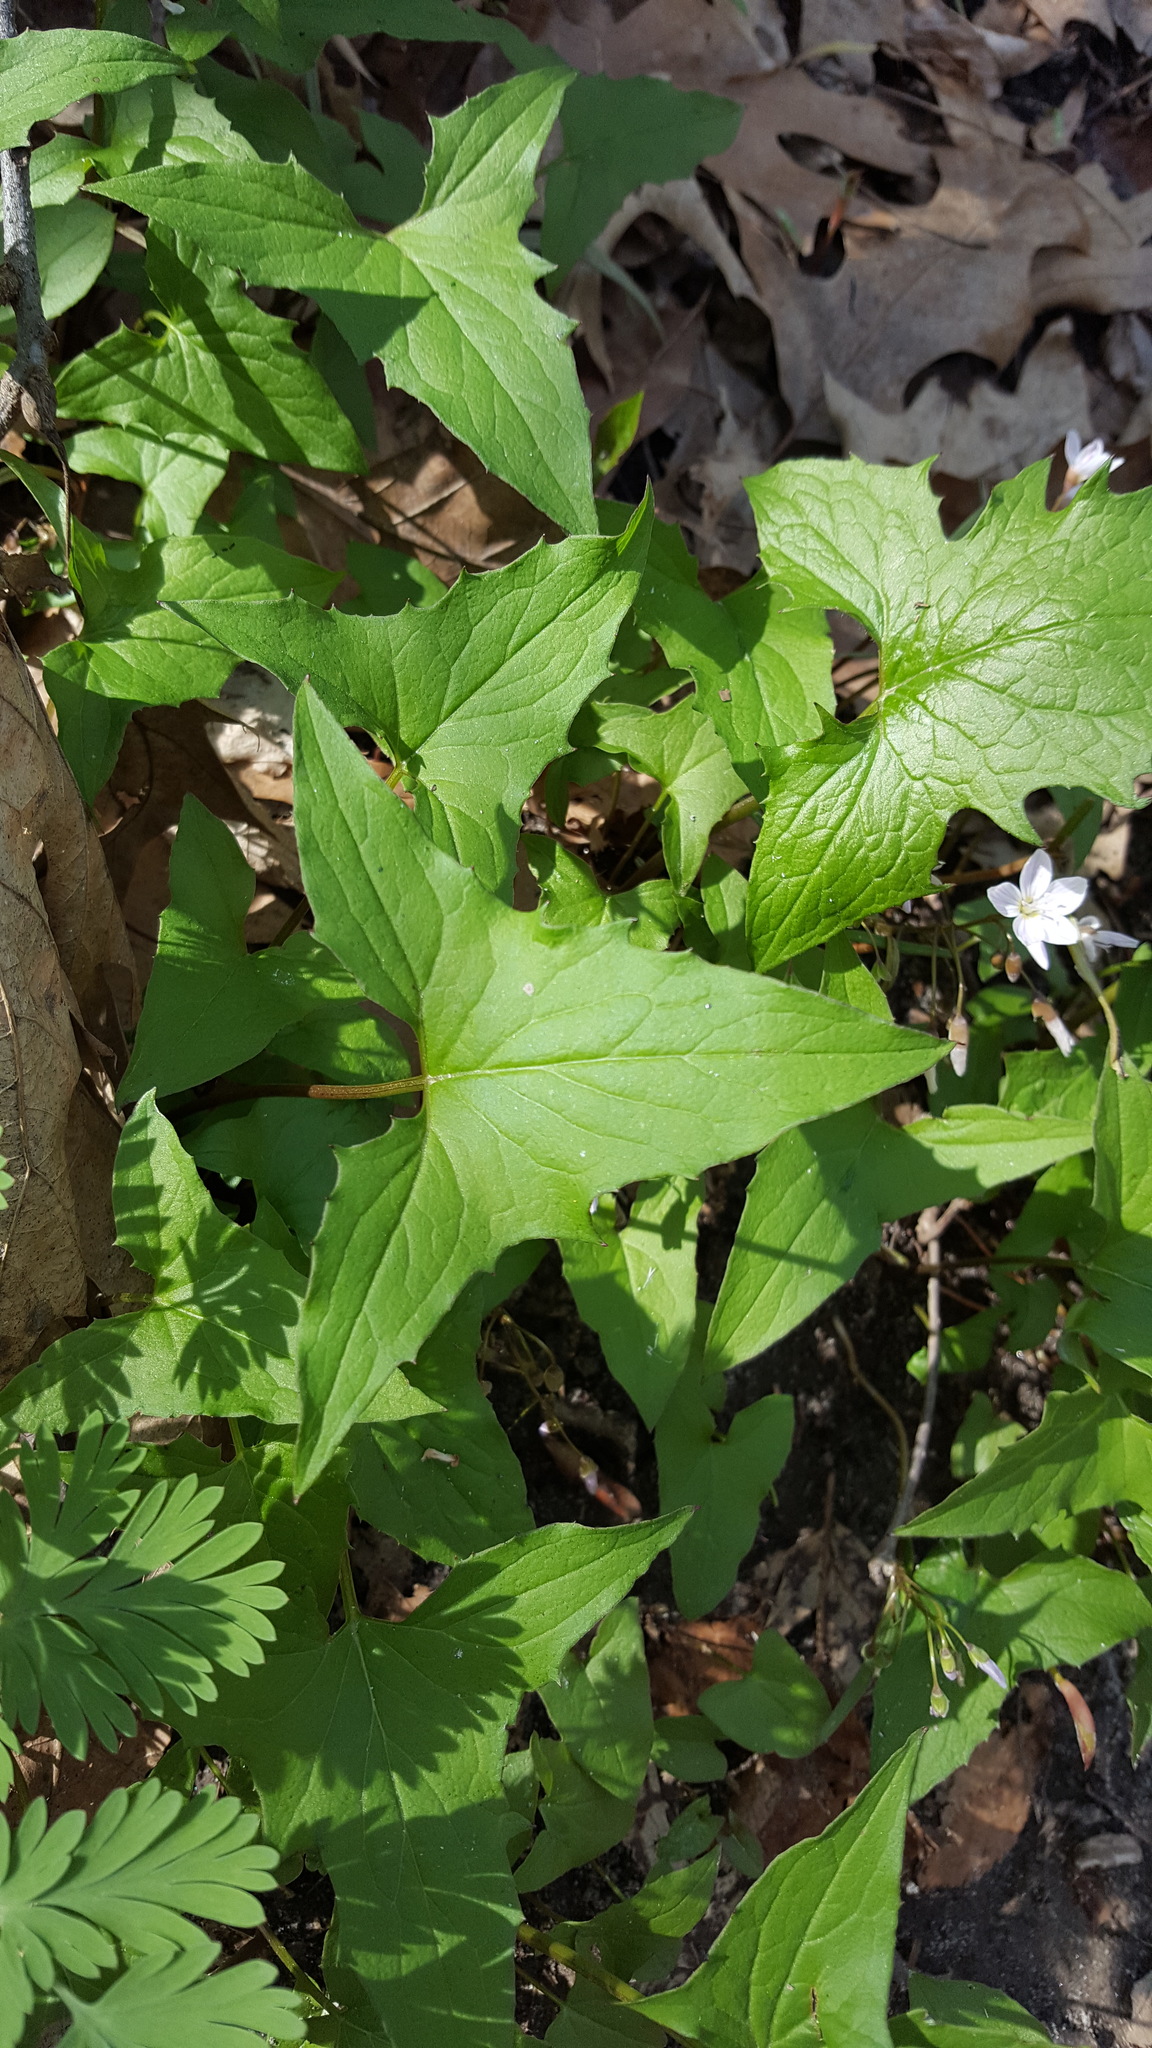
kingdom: Plantae
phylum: Tracheophyta
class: Magnoliopsida
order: Asterales
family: Asteraceae
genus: Nabalus
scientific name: Nabalus albus
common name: White rattlesnakeroot
